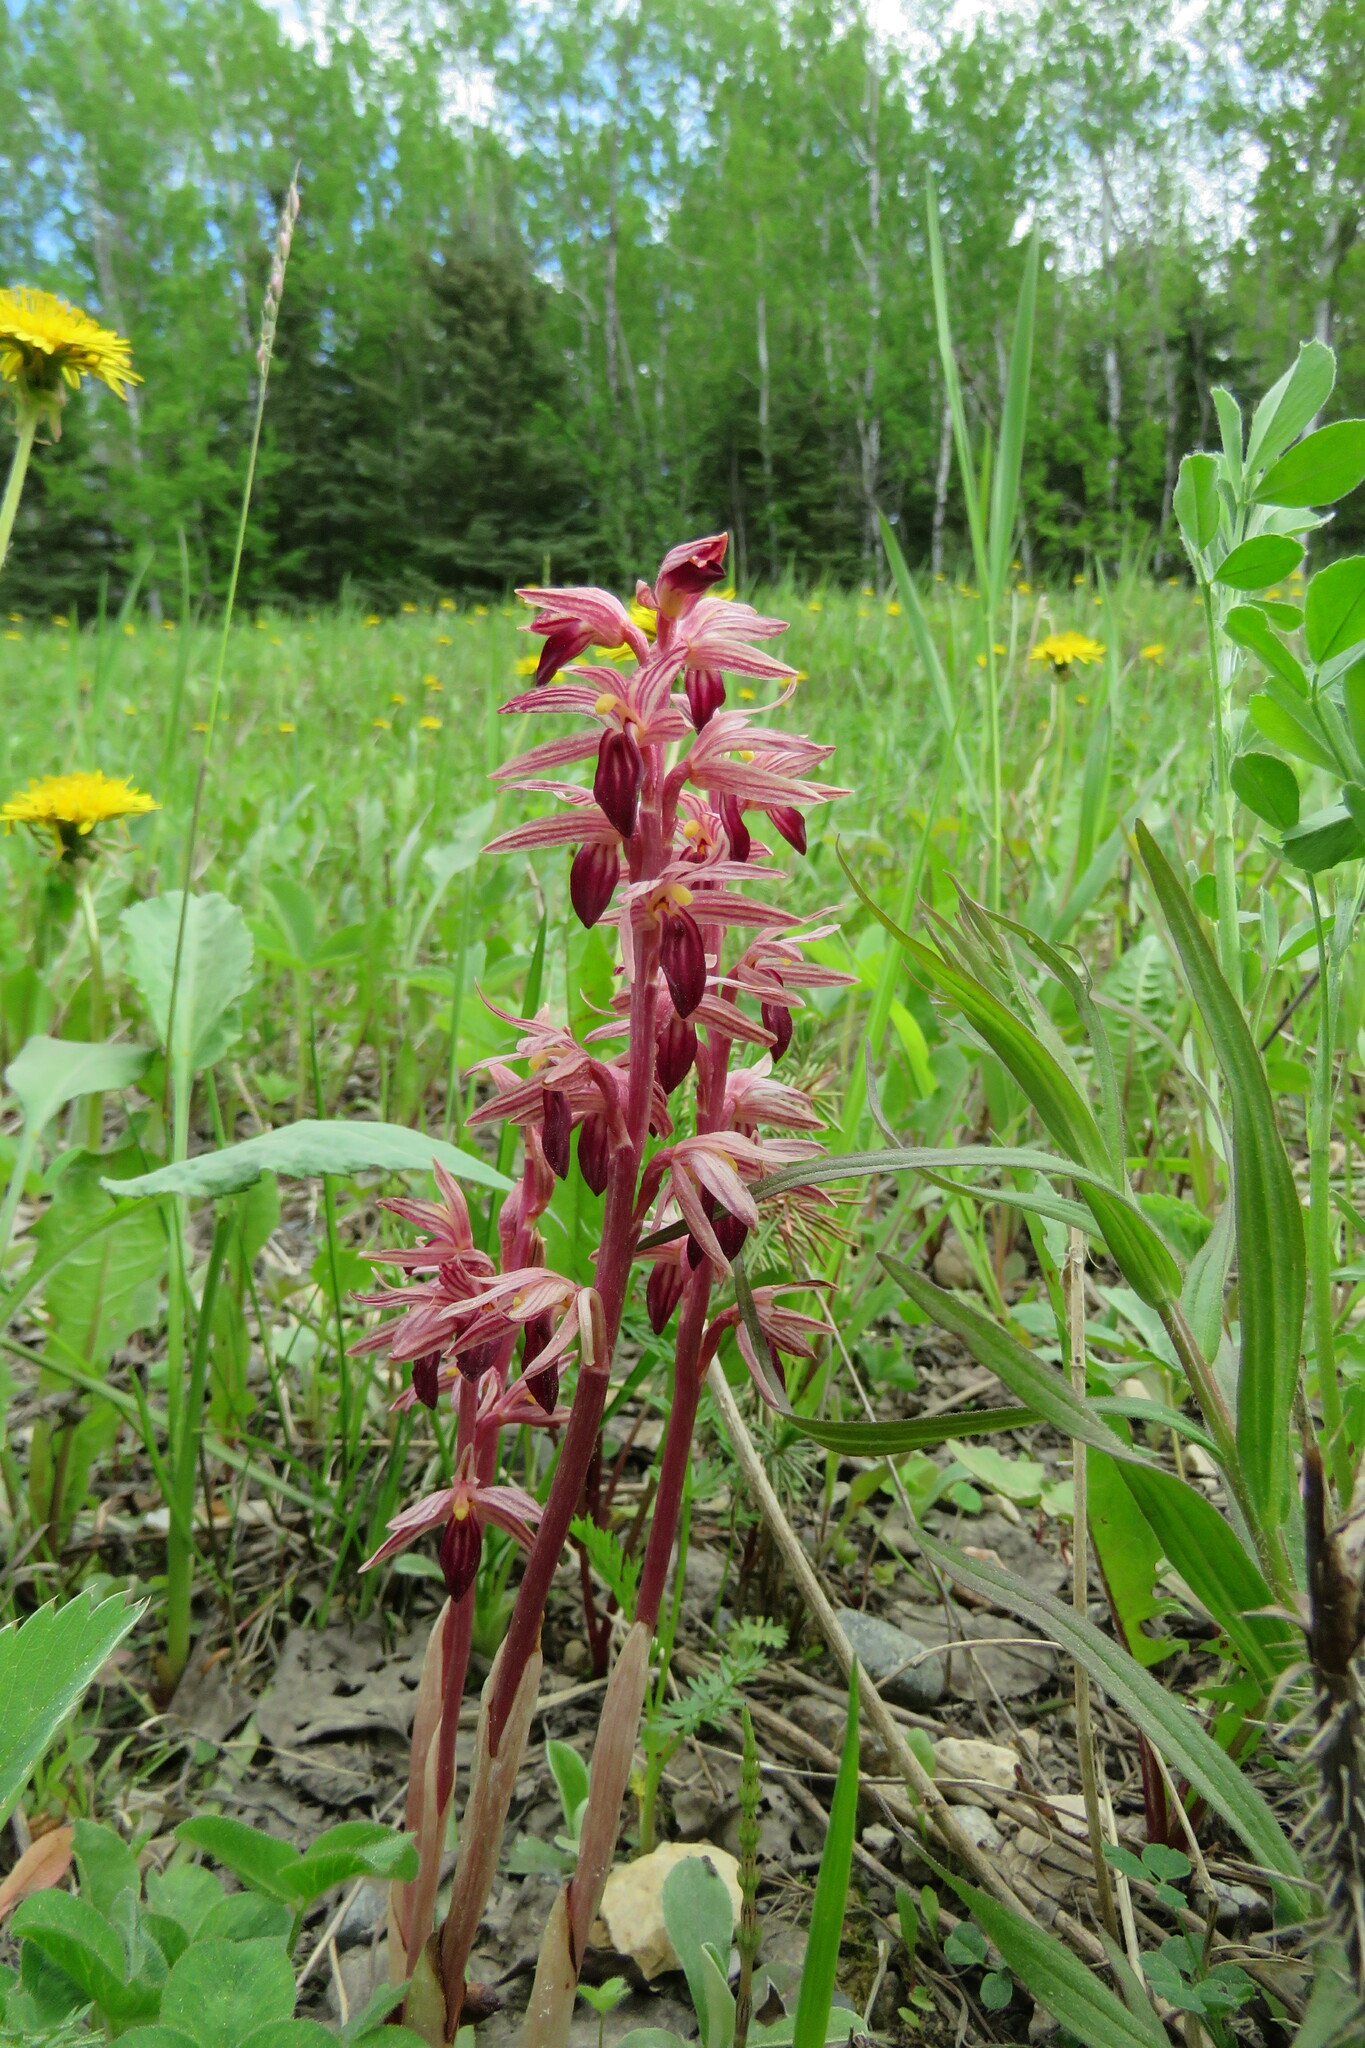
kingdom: Plantae
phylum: Tracheophyta
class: Liliopsida
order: Asparagales
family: Orchidaceae
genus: Corallorhiza
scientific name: Corallorhiza striata
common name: Hooded coralroot
